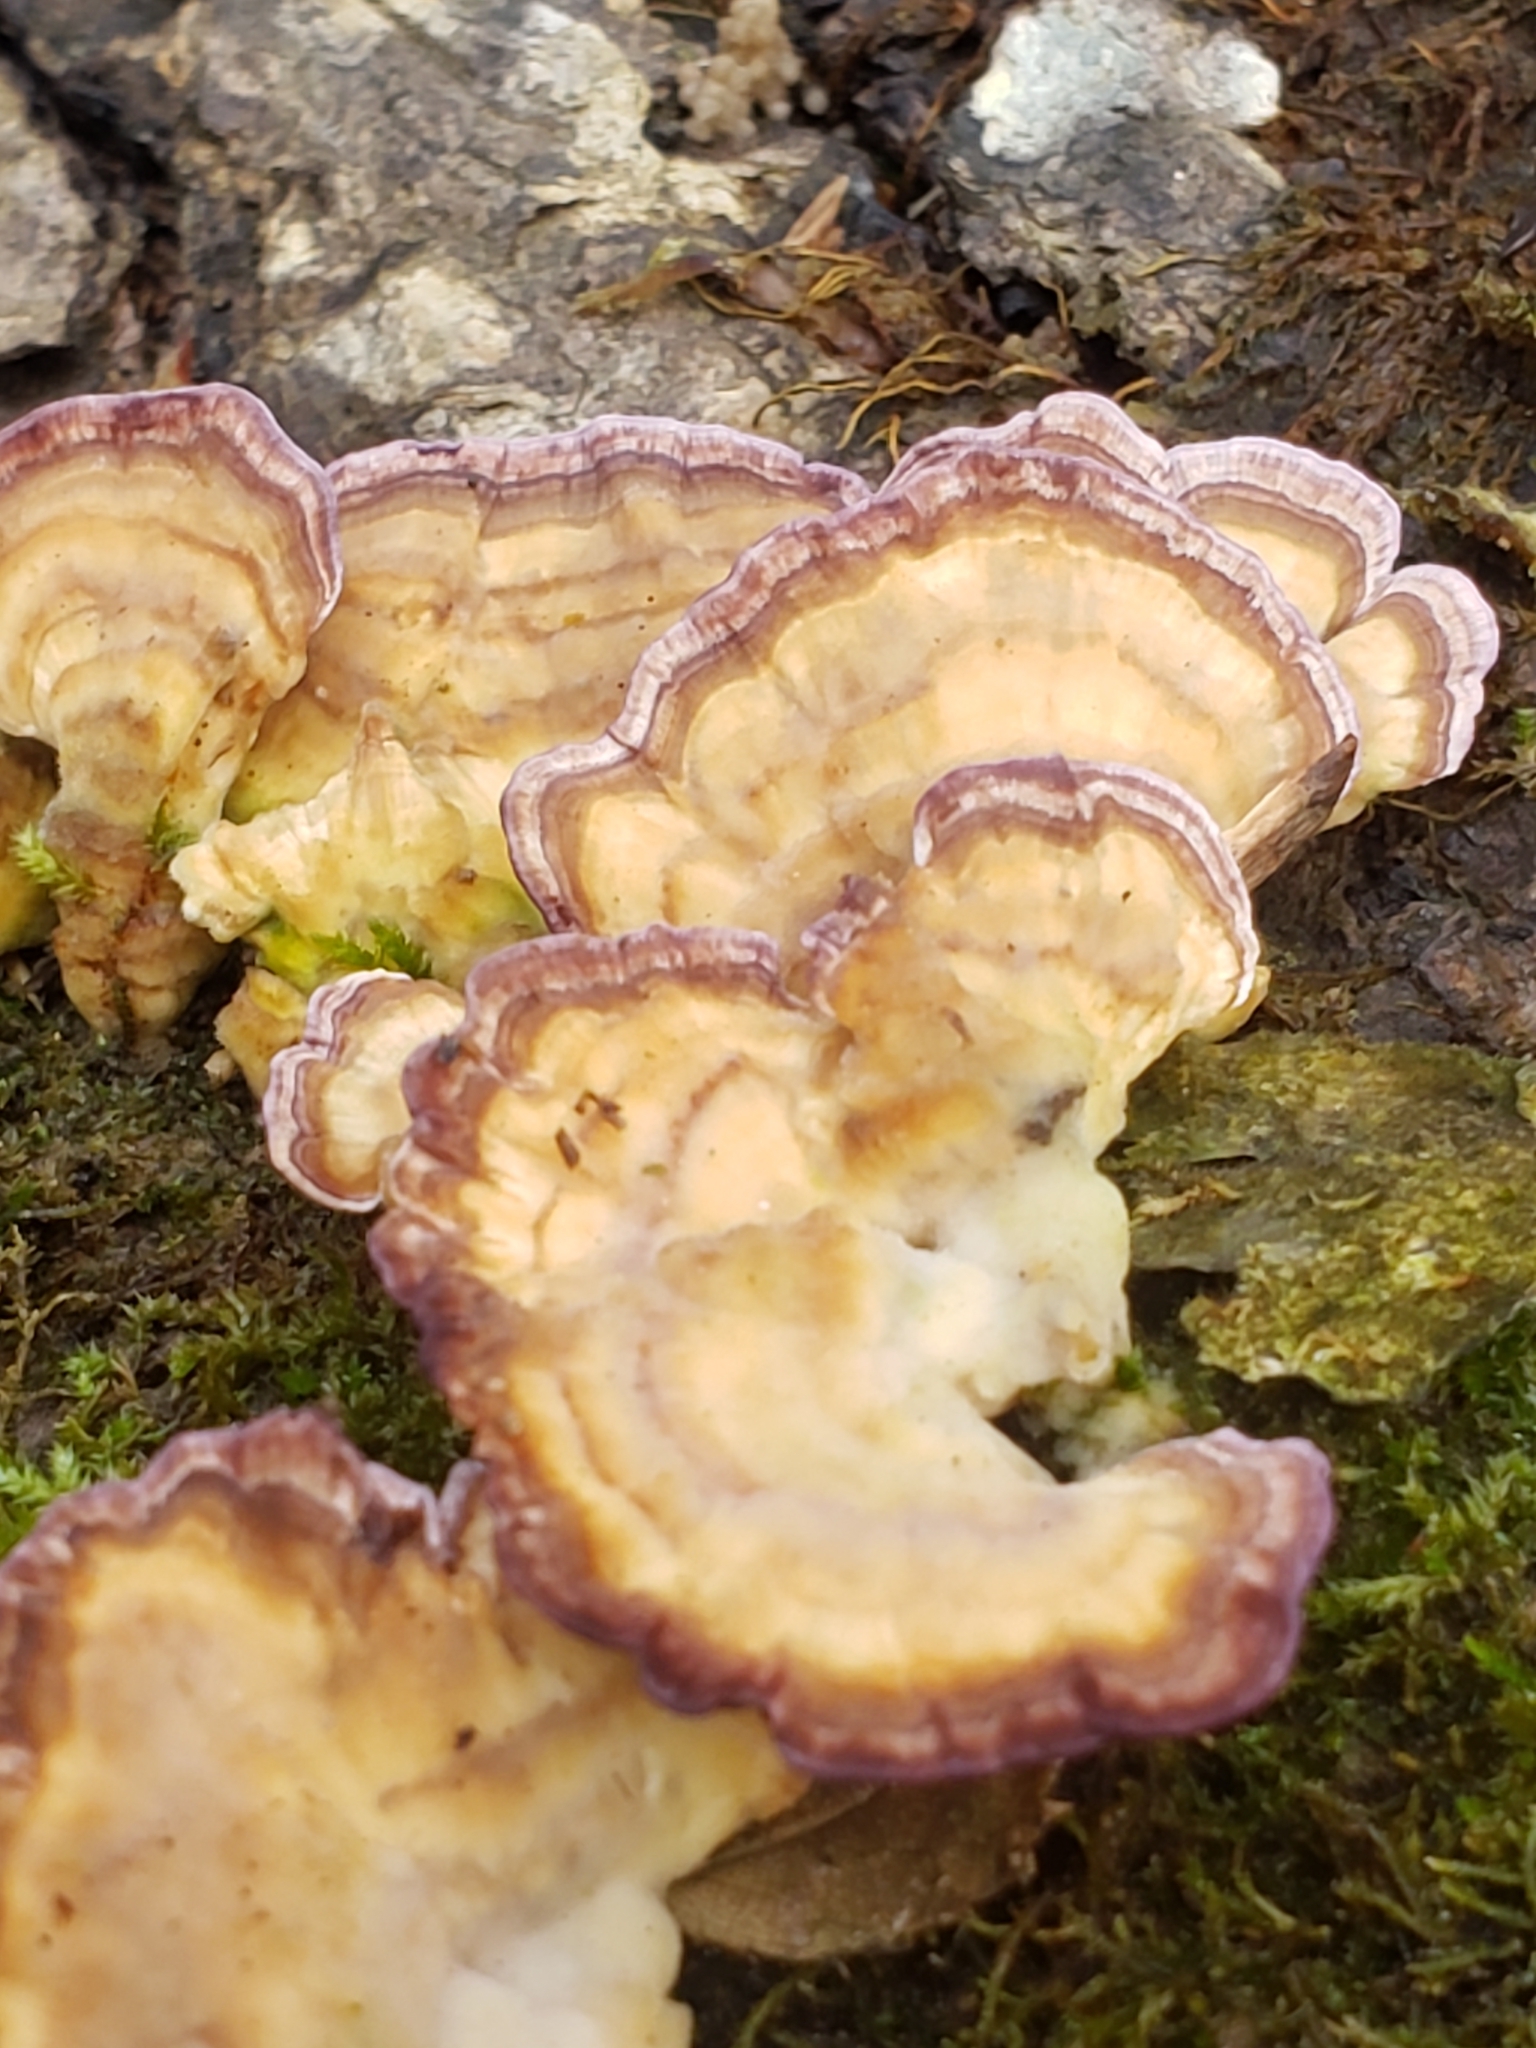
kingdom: Fungi
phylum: Basidiomycota
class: Agaricomycetes
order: Hymenochaetales
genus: Trichaptum
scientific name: Trichaptum biforme
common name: Violet-toothed polypore
